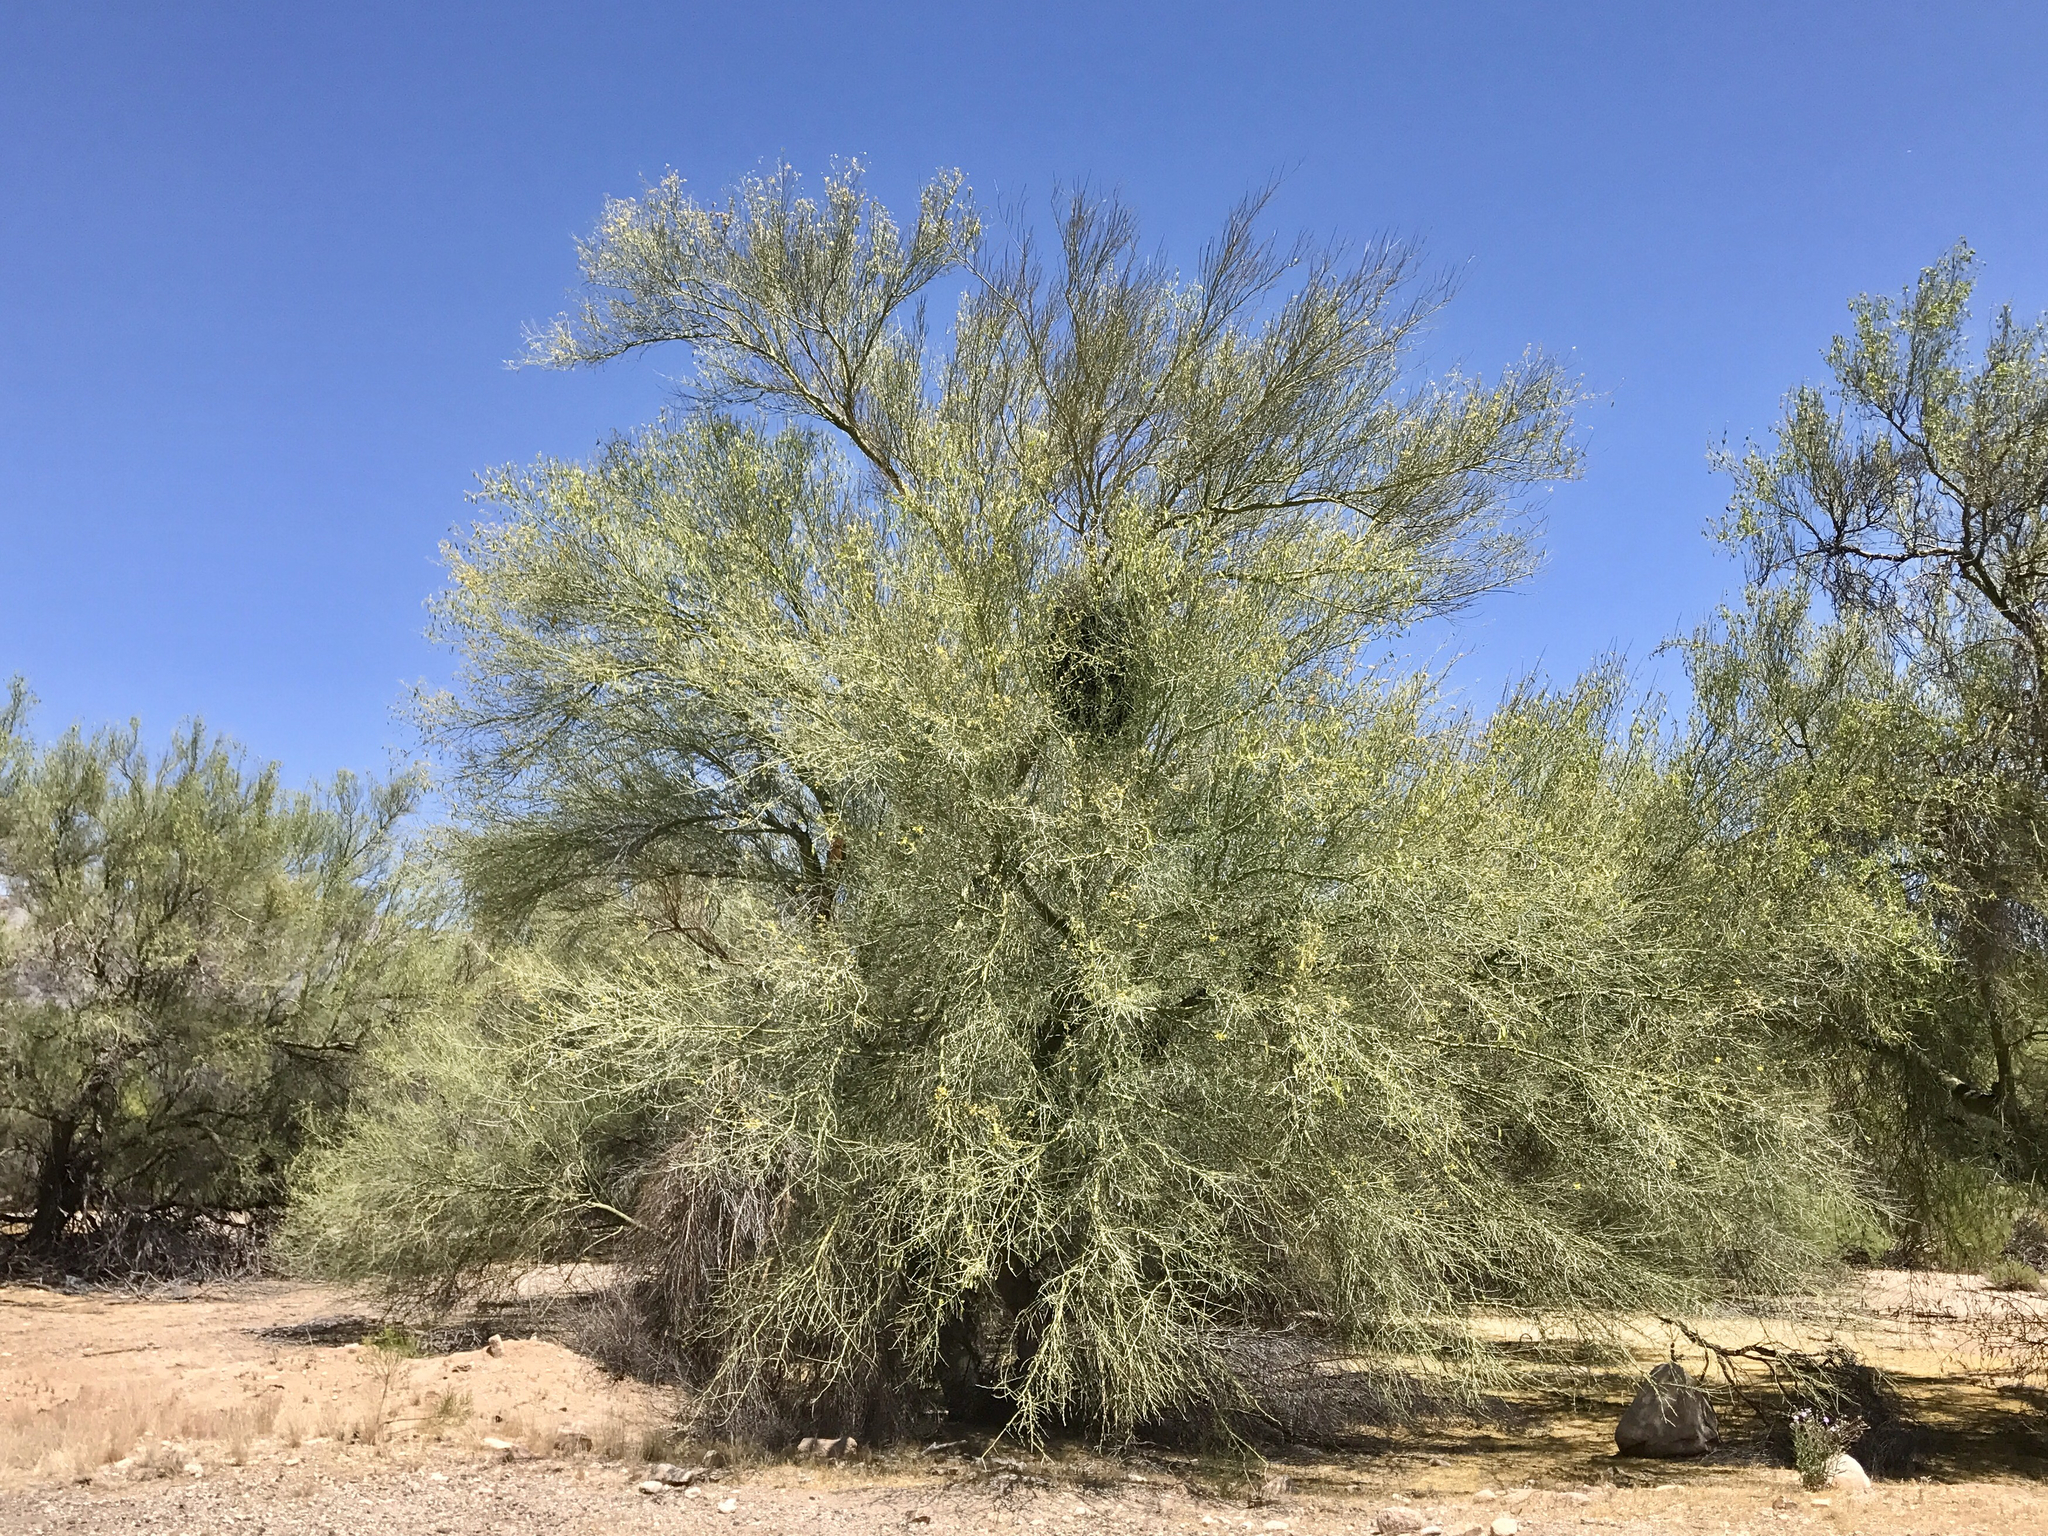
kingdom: Plantae
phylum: Tracheophyta
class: Magnoliopsida
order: Fabales
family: Fabaceae
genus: Parkinsonia
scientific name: Parkinsonia florida
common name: Blue paloverde
